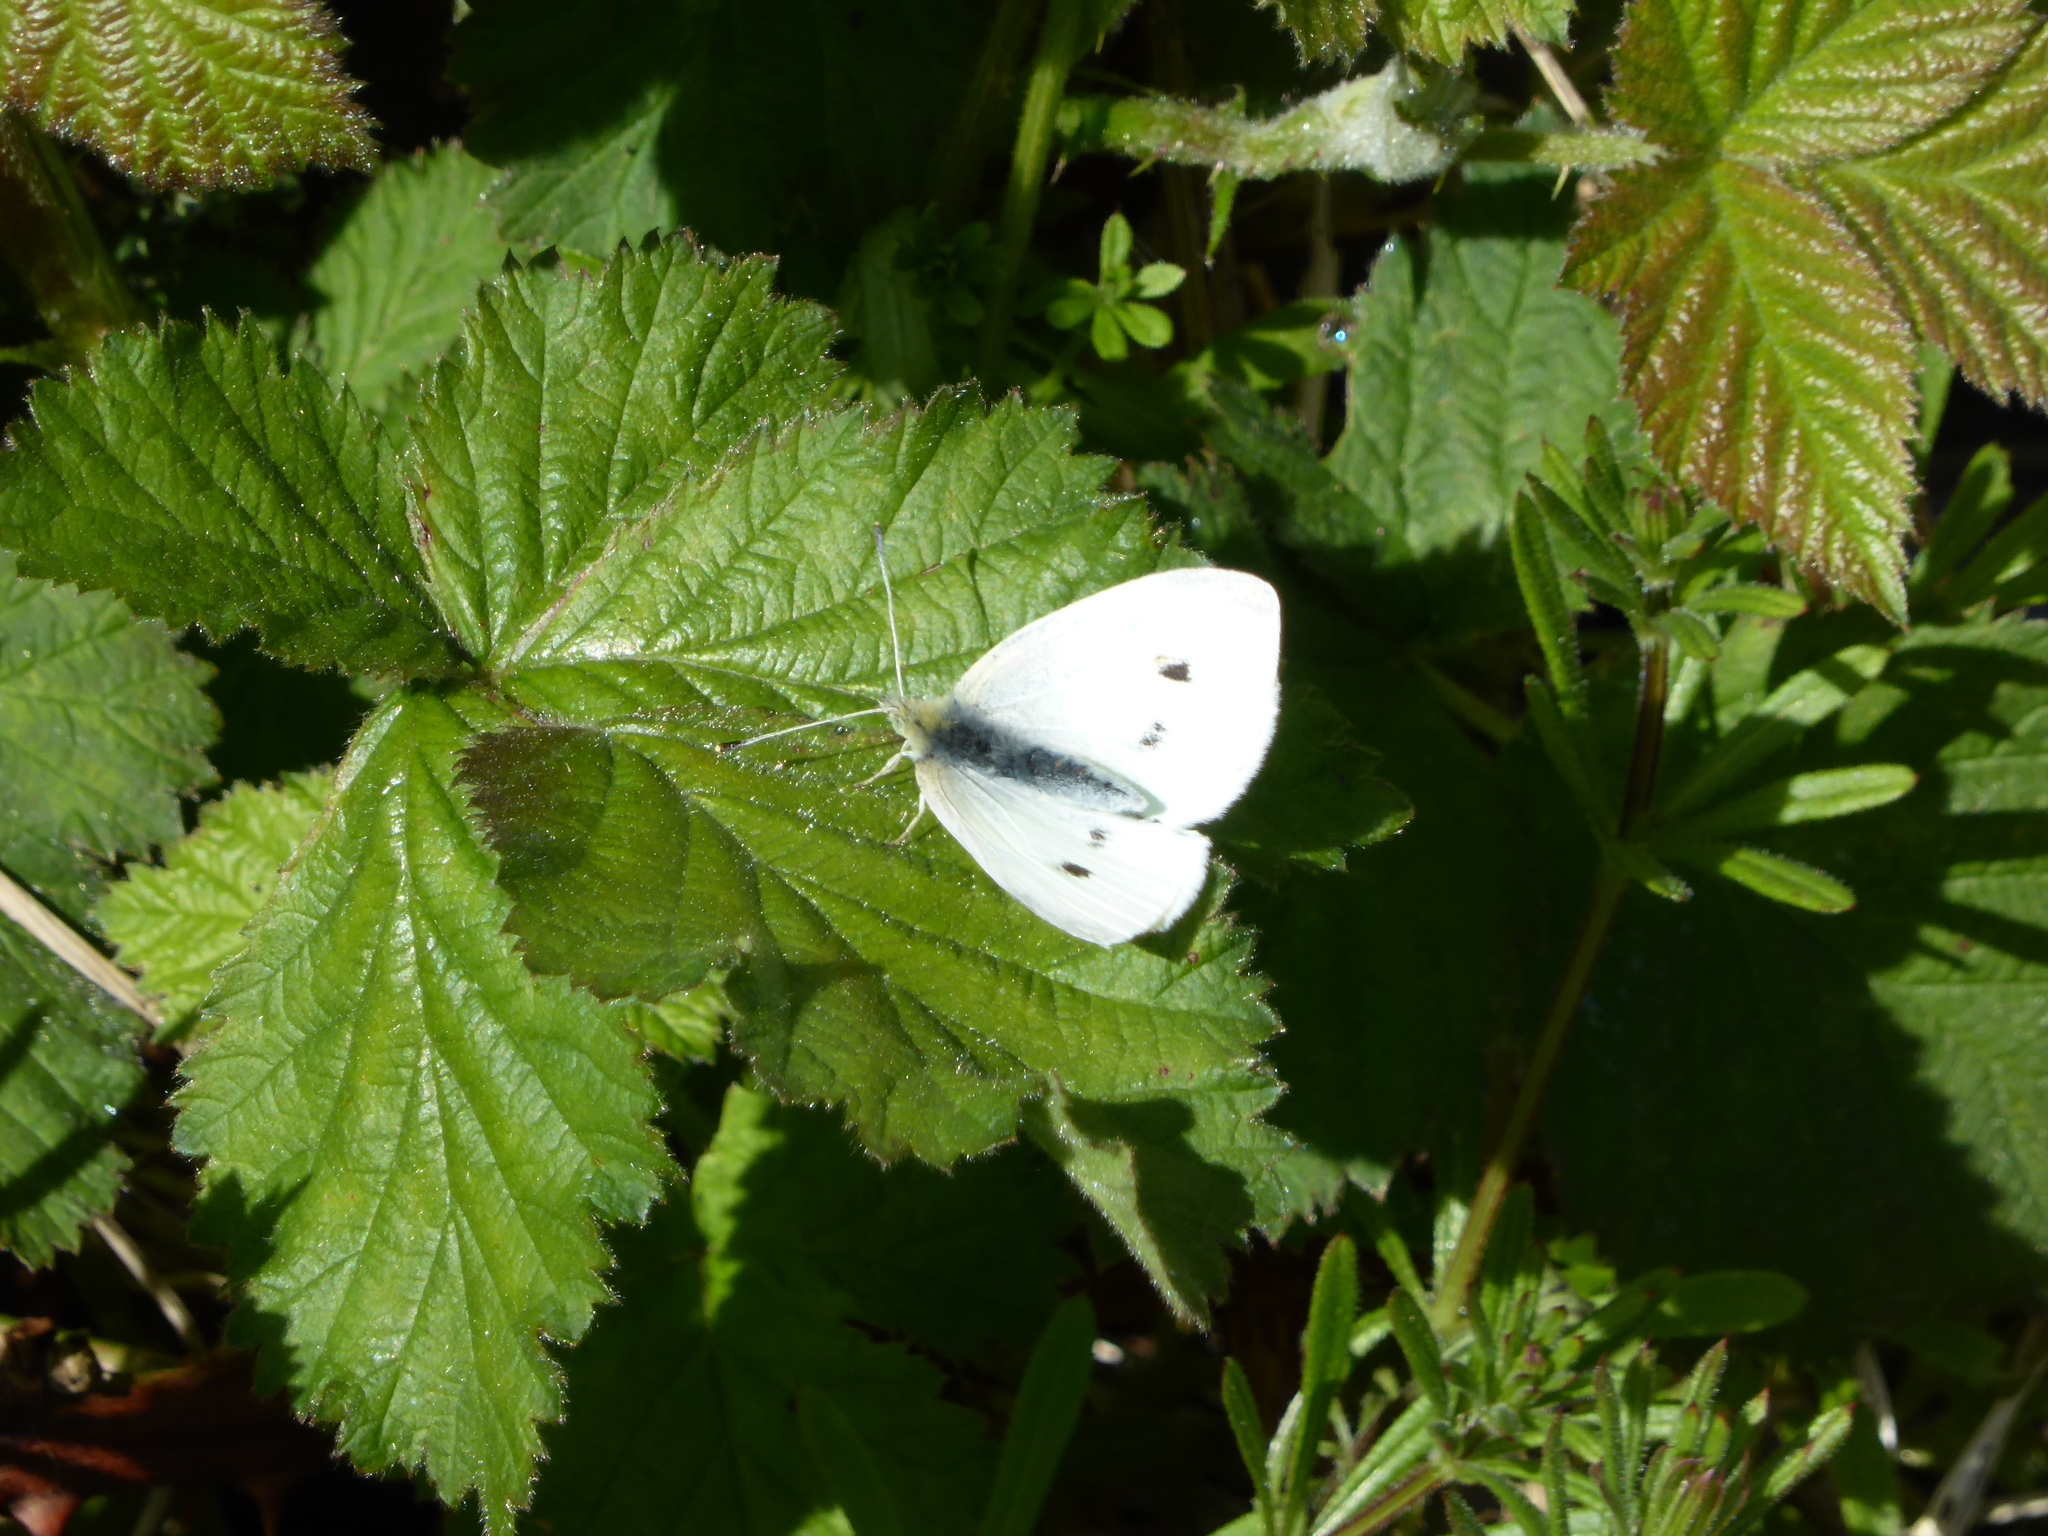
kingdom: Animalia
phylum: Arthropoda
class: Insecta
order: Lepidoptera
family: Pieridae
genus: Pieris
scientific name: Pieris rapae
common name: Small white
